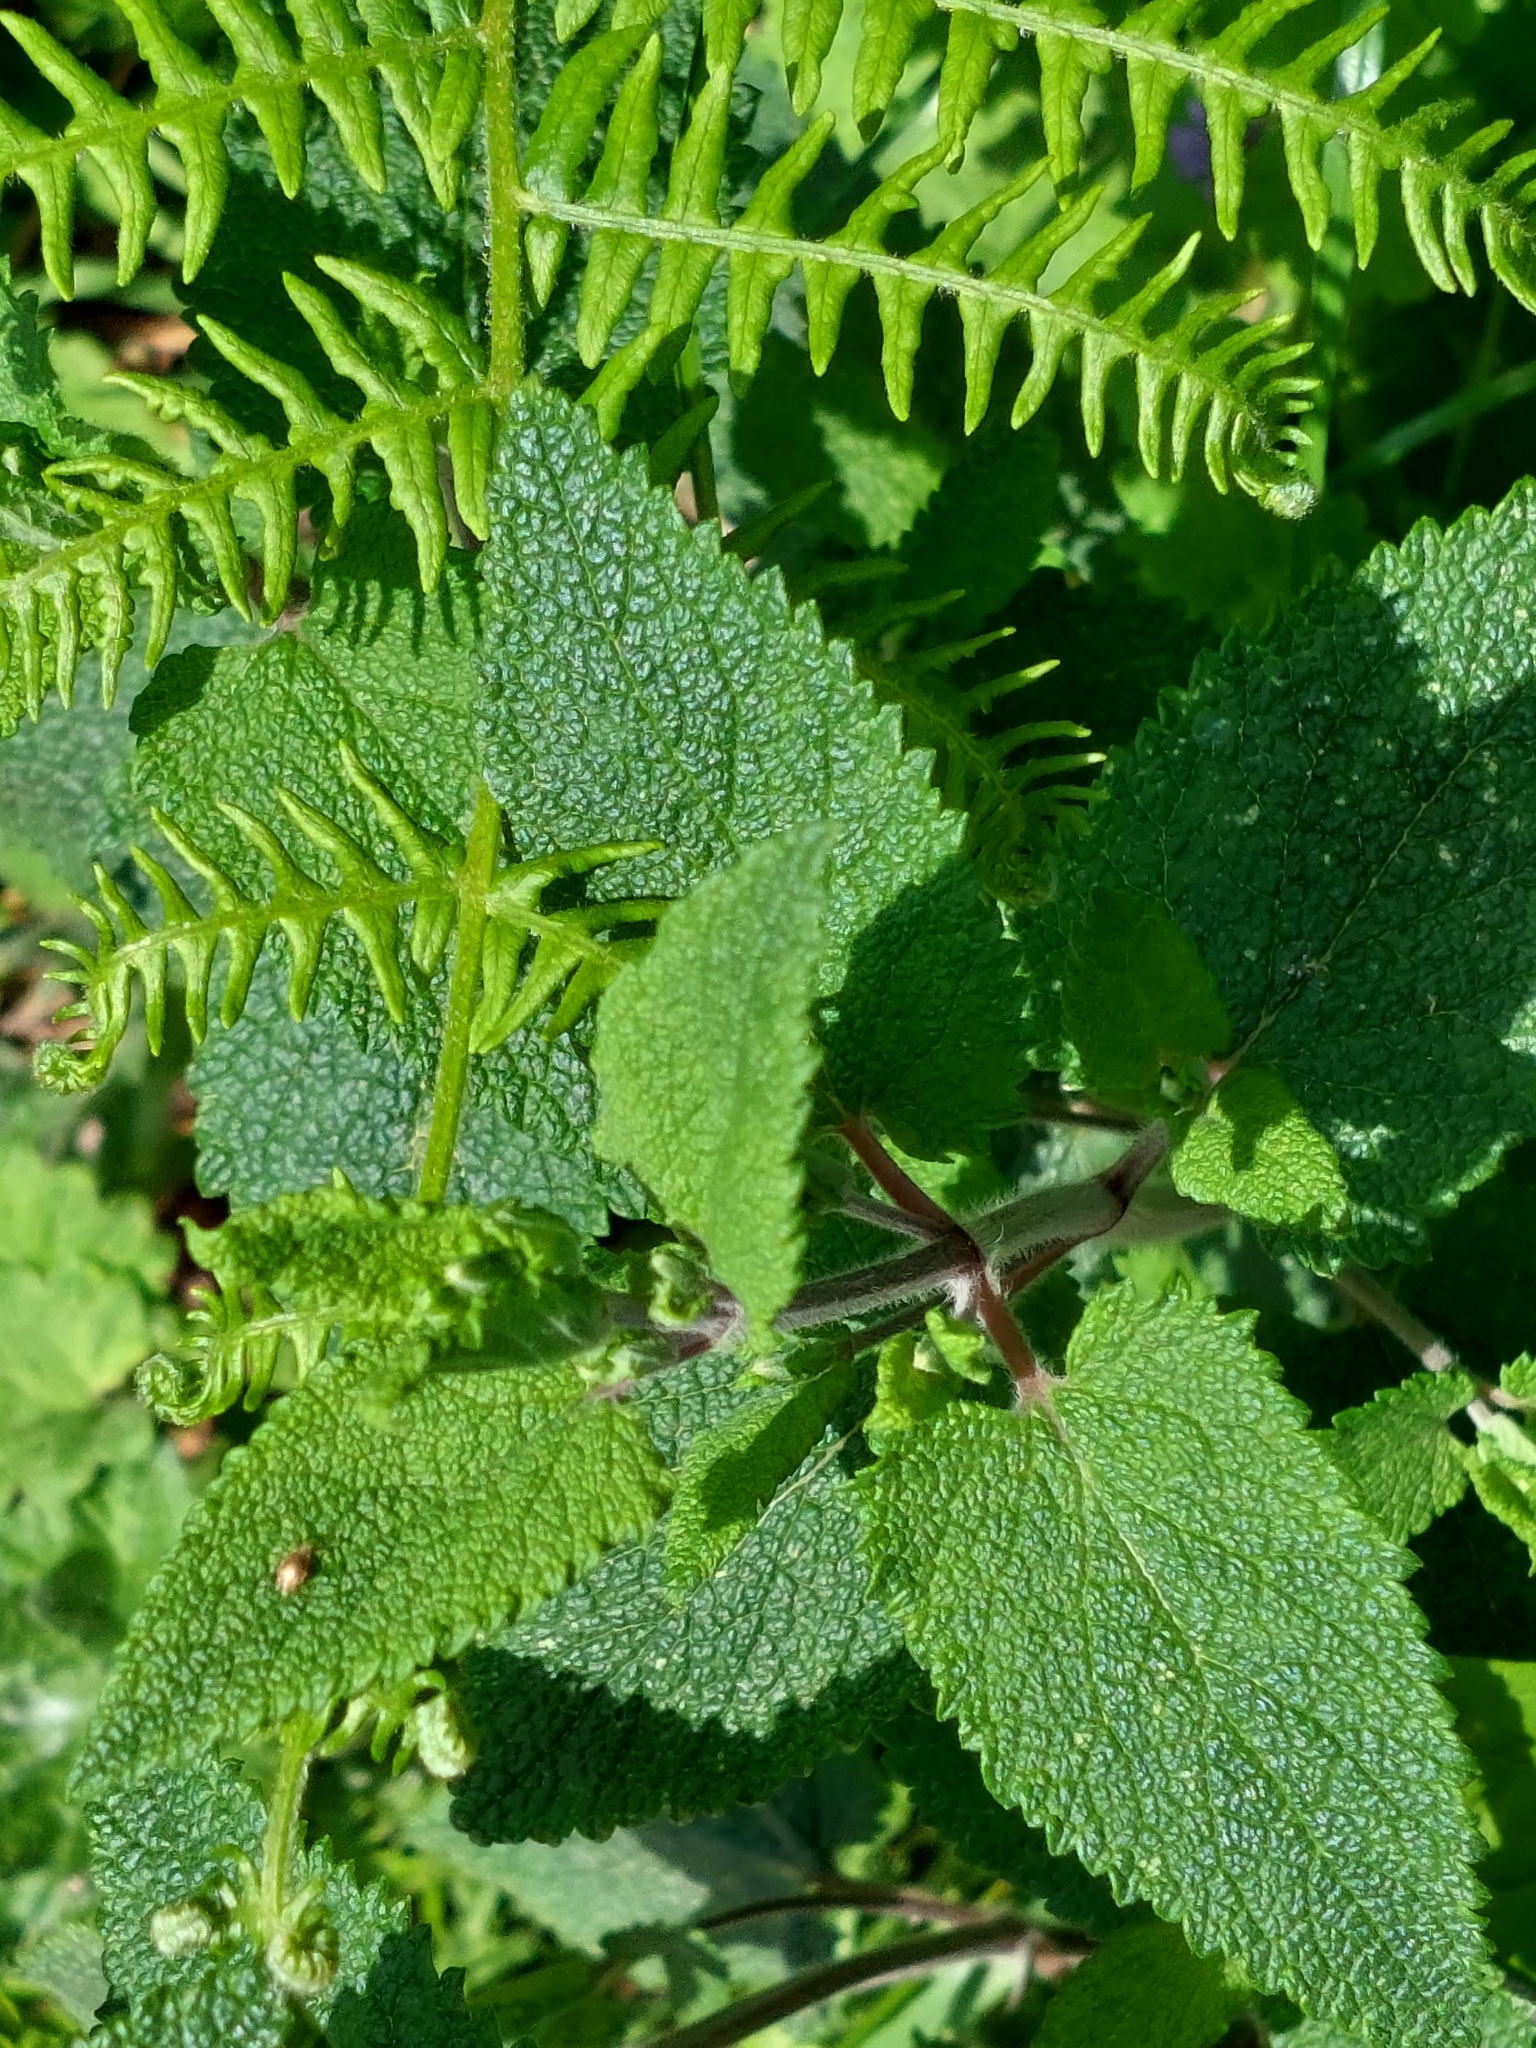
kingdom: Plantae
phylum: Tracheophyta
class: Magnoliopsida
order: Lamiales
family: Lamiaceae
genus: Teucrium
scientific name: Teucrium scorodonia
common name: Woodland germander
